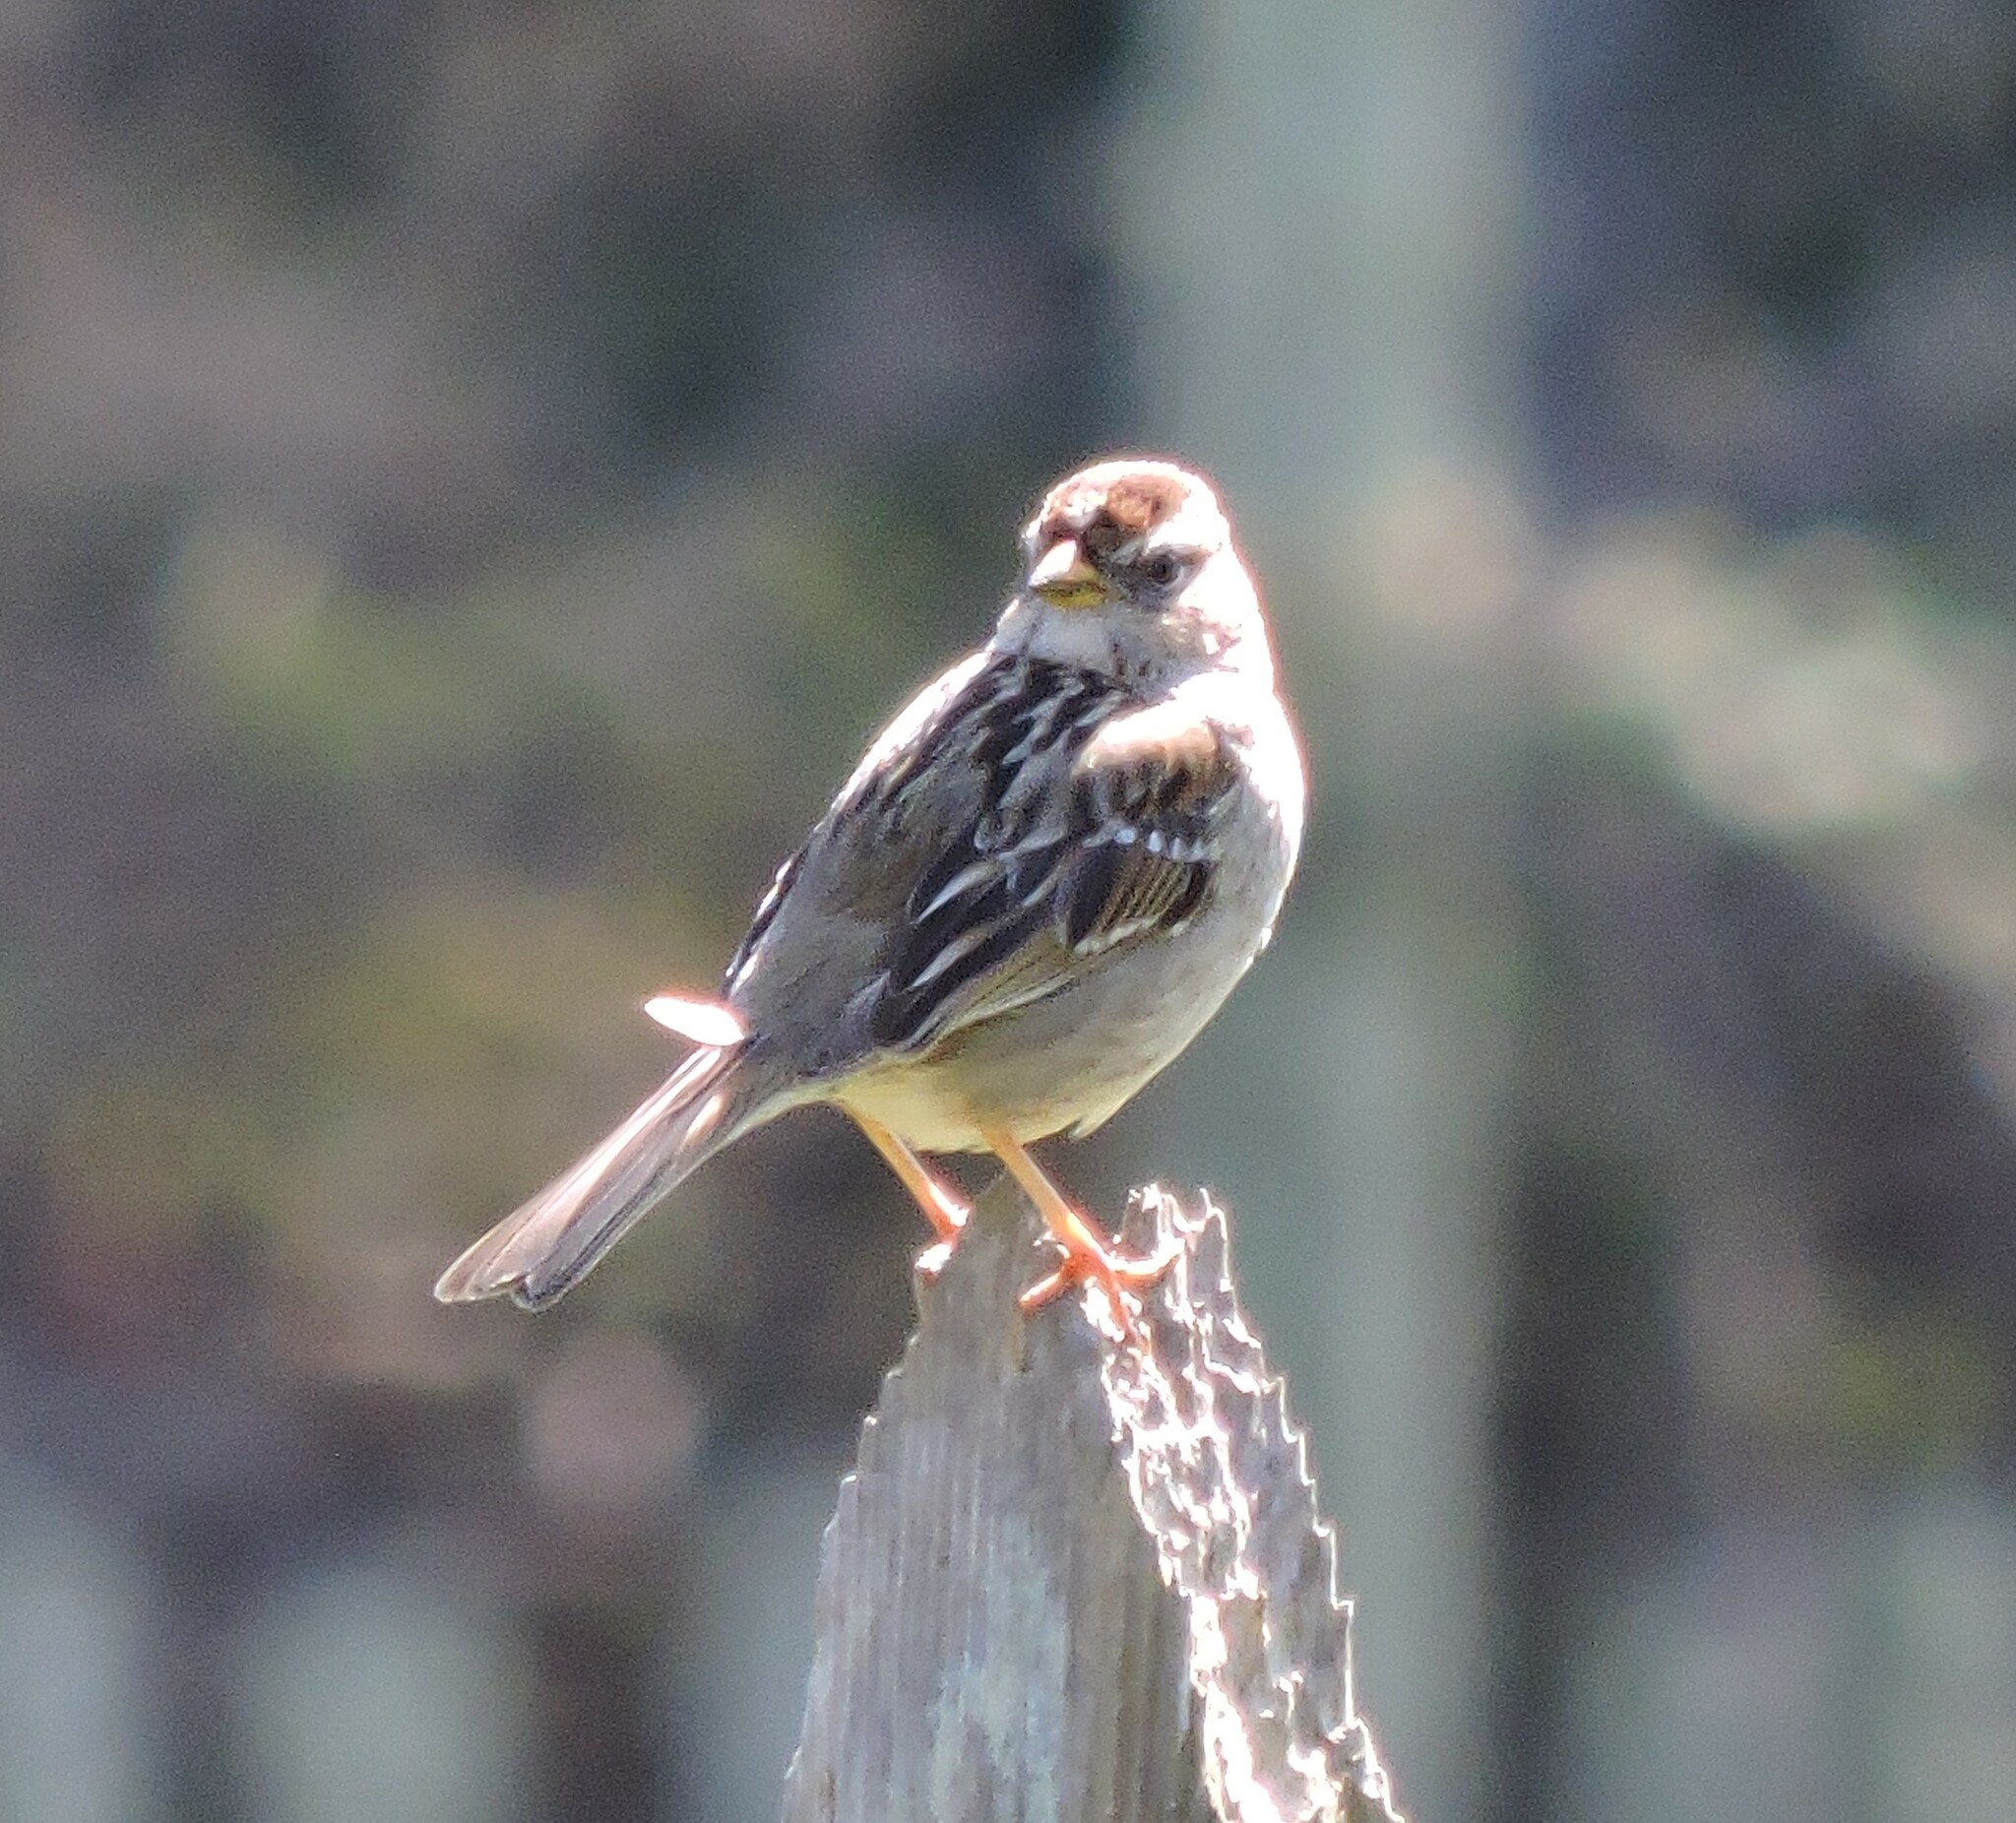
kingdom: Animalia
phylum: Chordata
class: Aves
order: Passeriformes
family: Passerellidae
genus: Zonotrichia
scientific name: Zonotrichia leucophrys
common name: White-crowned sparrow
